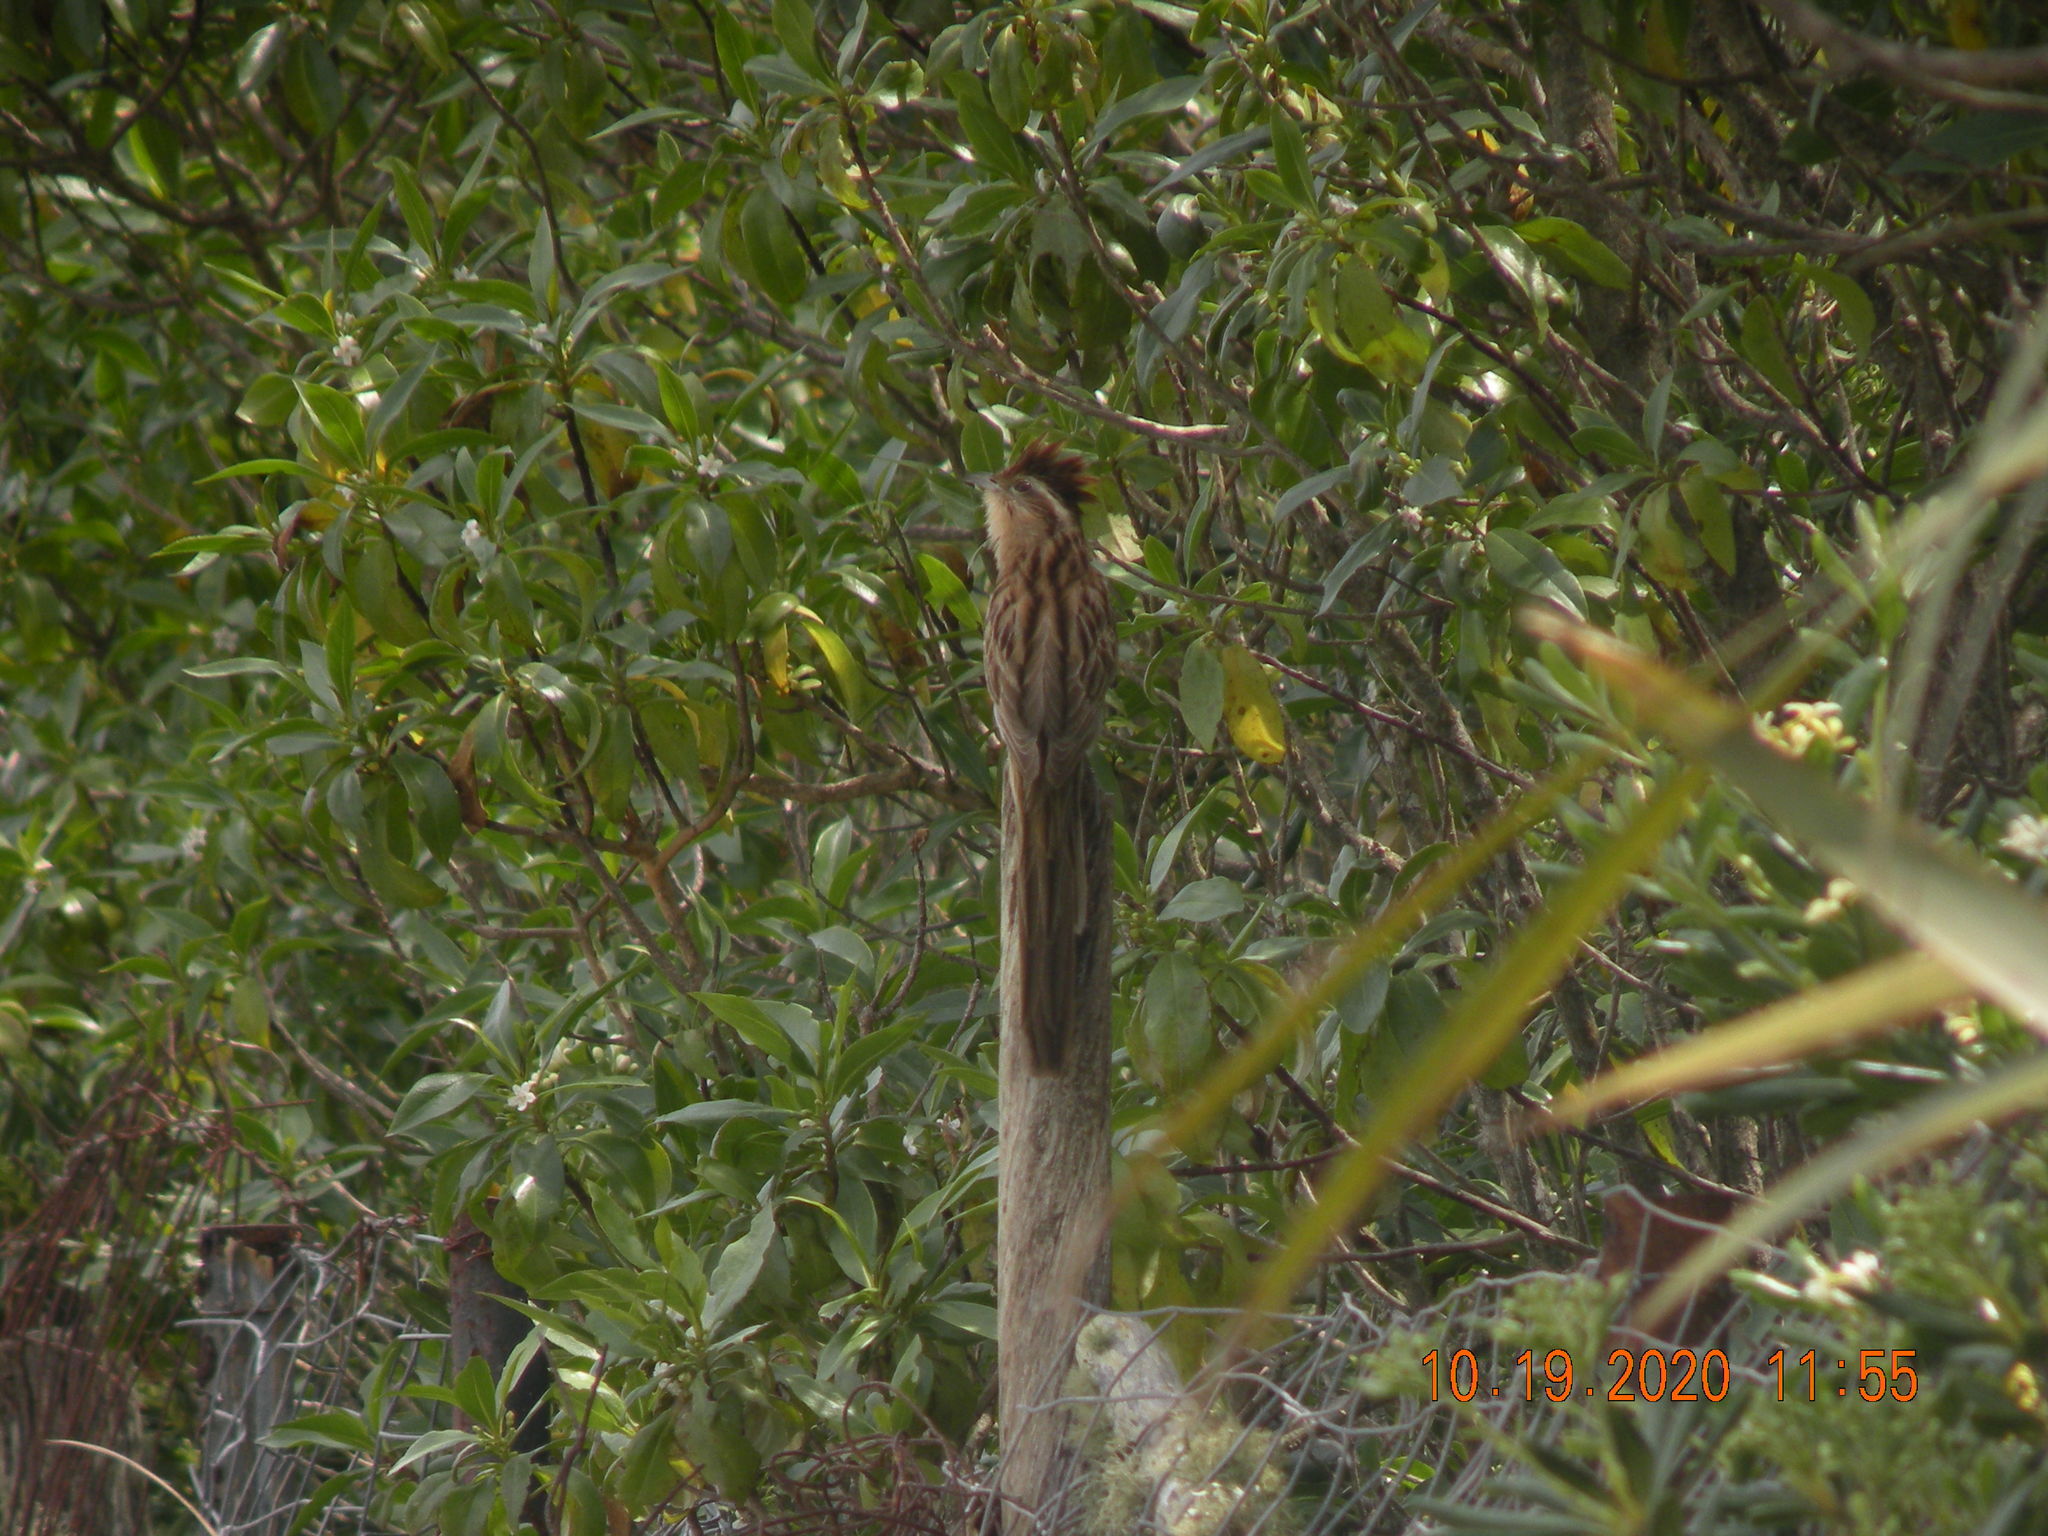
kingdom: Animalia
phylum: Chordata
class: Aves
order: Cuculiformes
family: Cuculidae
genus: Tapera
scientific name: Tapera naevia
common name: Striped cuckoo
